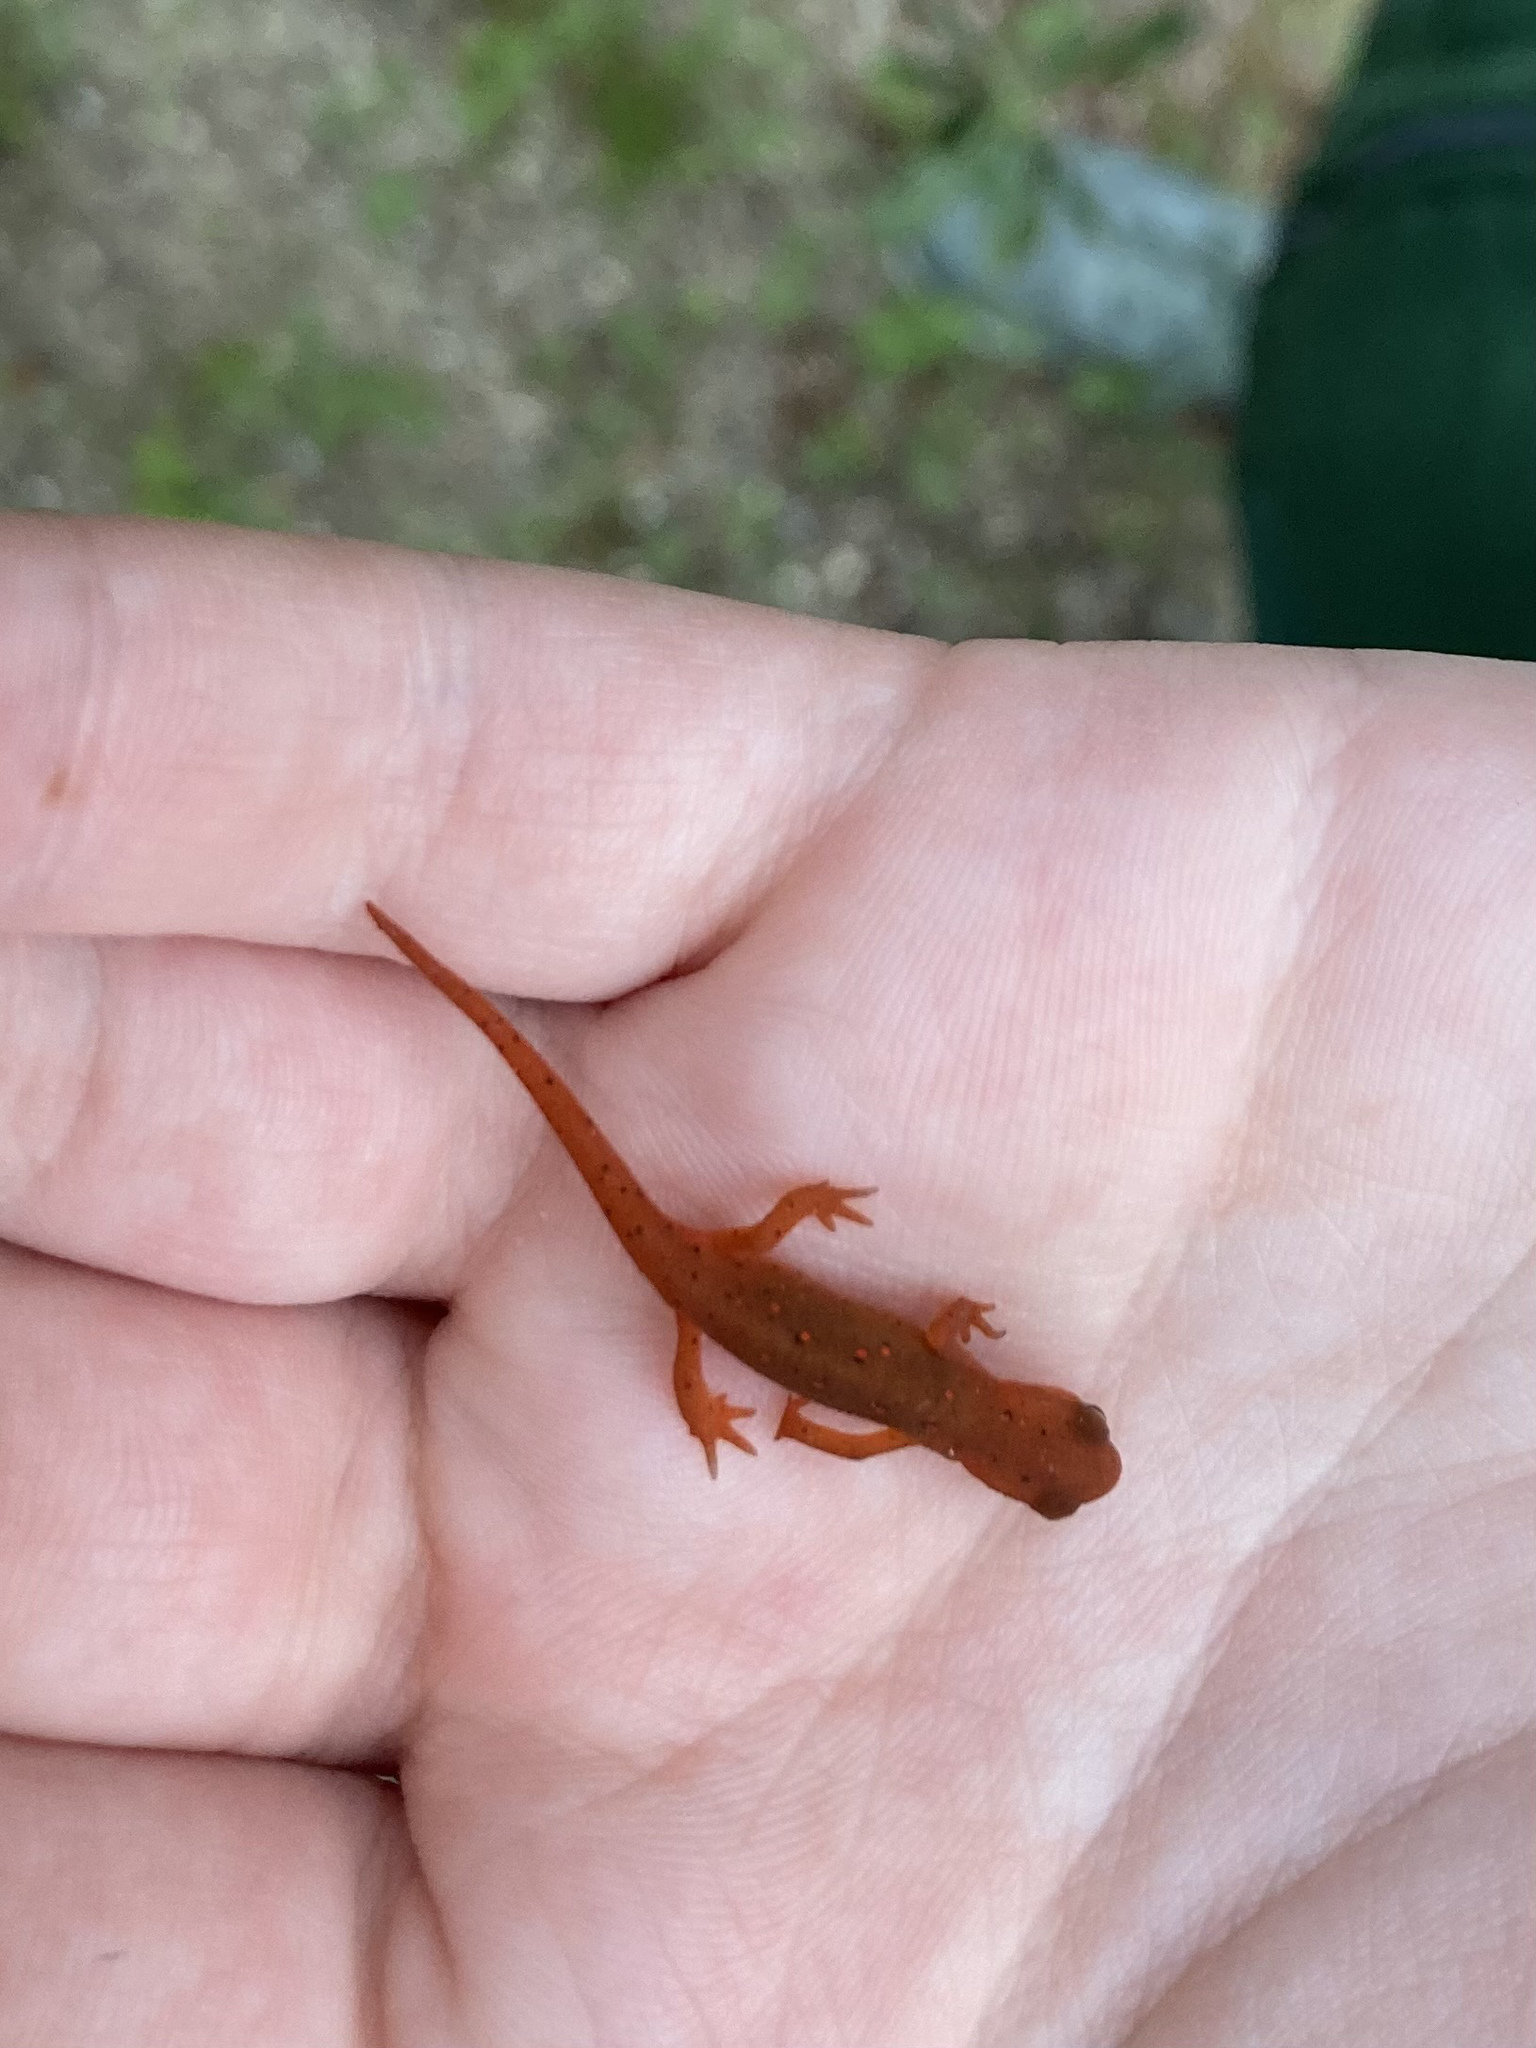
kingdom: Animalia
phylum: Chordata
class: Amphibia
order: Caudata
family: Salamandridae
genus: Notophthalmus
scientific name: Notophthalmus viridescens
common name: Eastern newt
